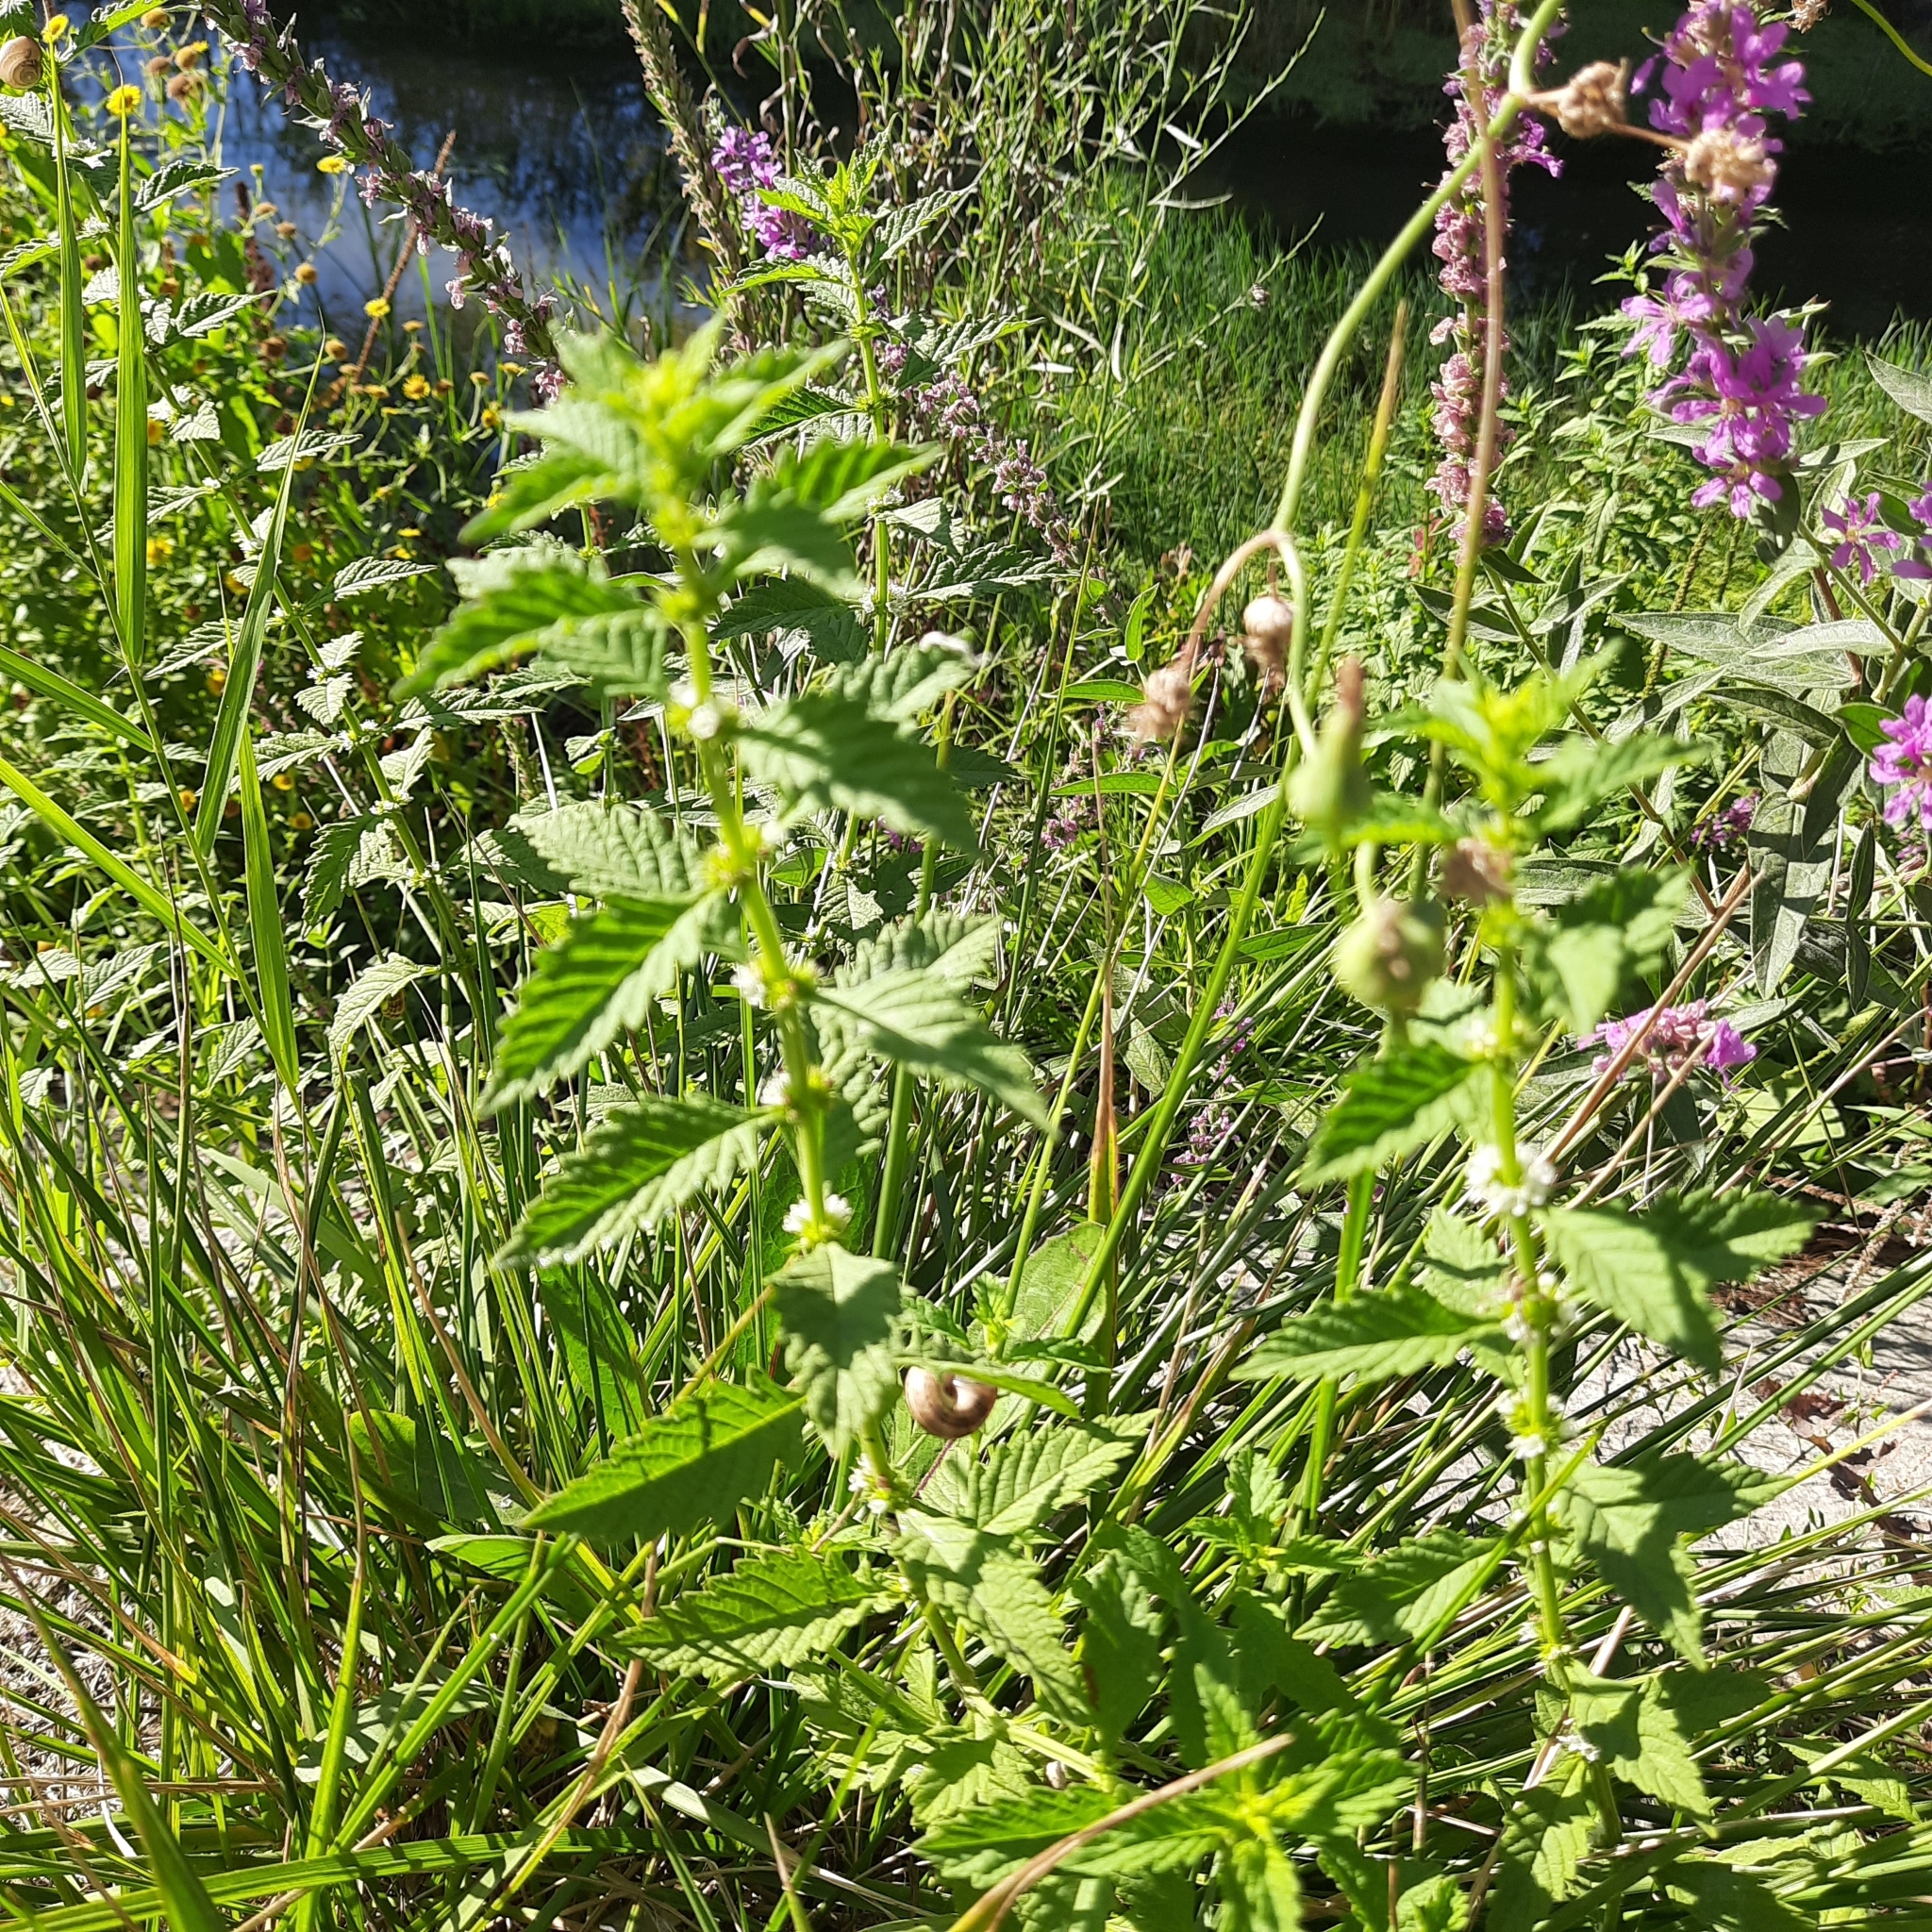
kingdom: Plantae
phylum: Tracheophyta
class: Magnoliopsida
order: Lamiales
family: Lamiaceae
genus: Lycopus
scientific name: Lycopus europaeus
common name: European bugleweed
